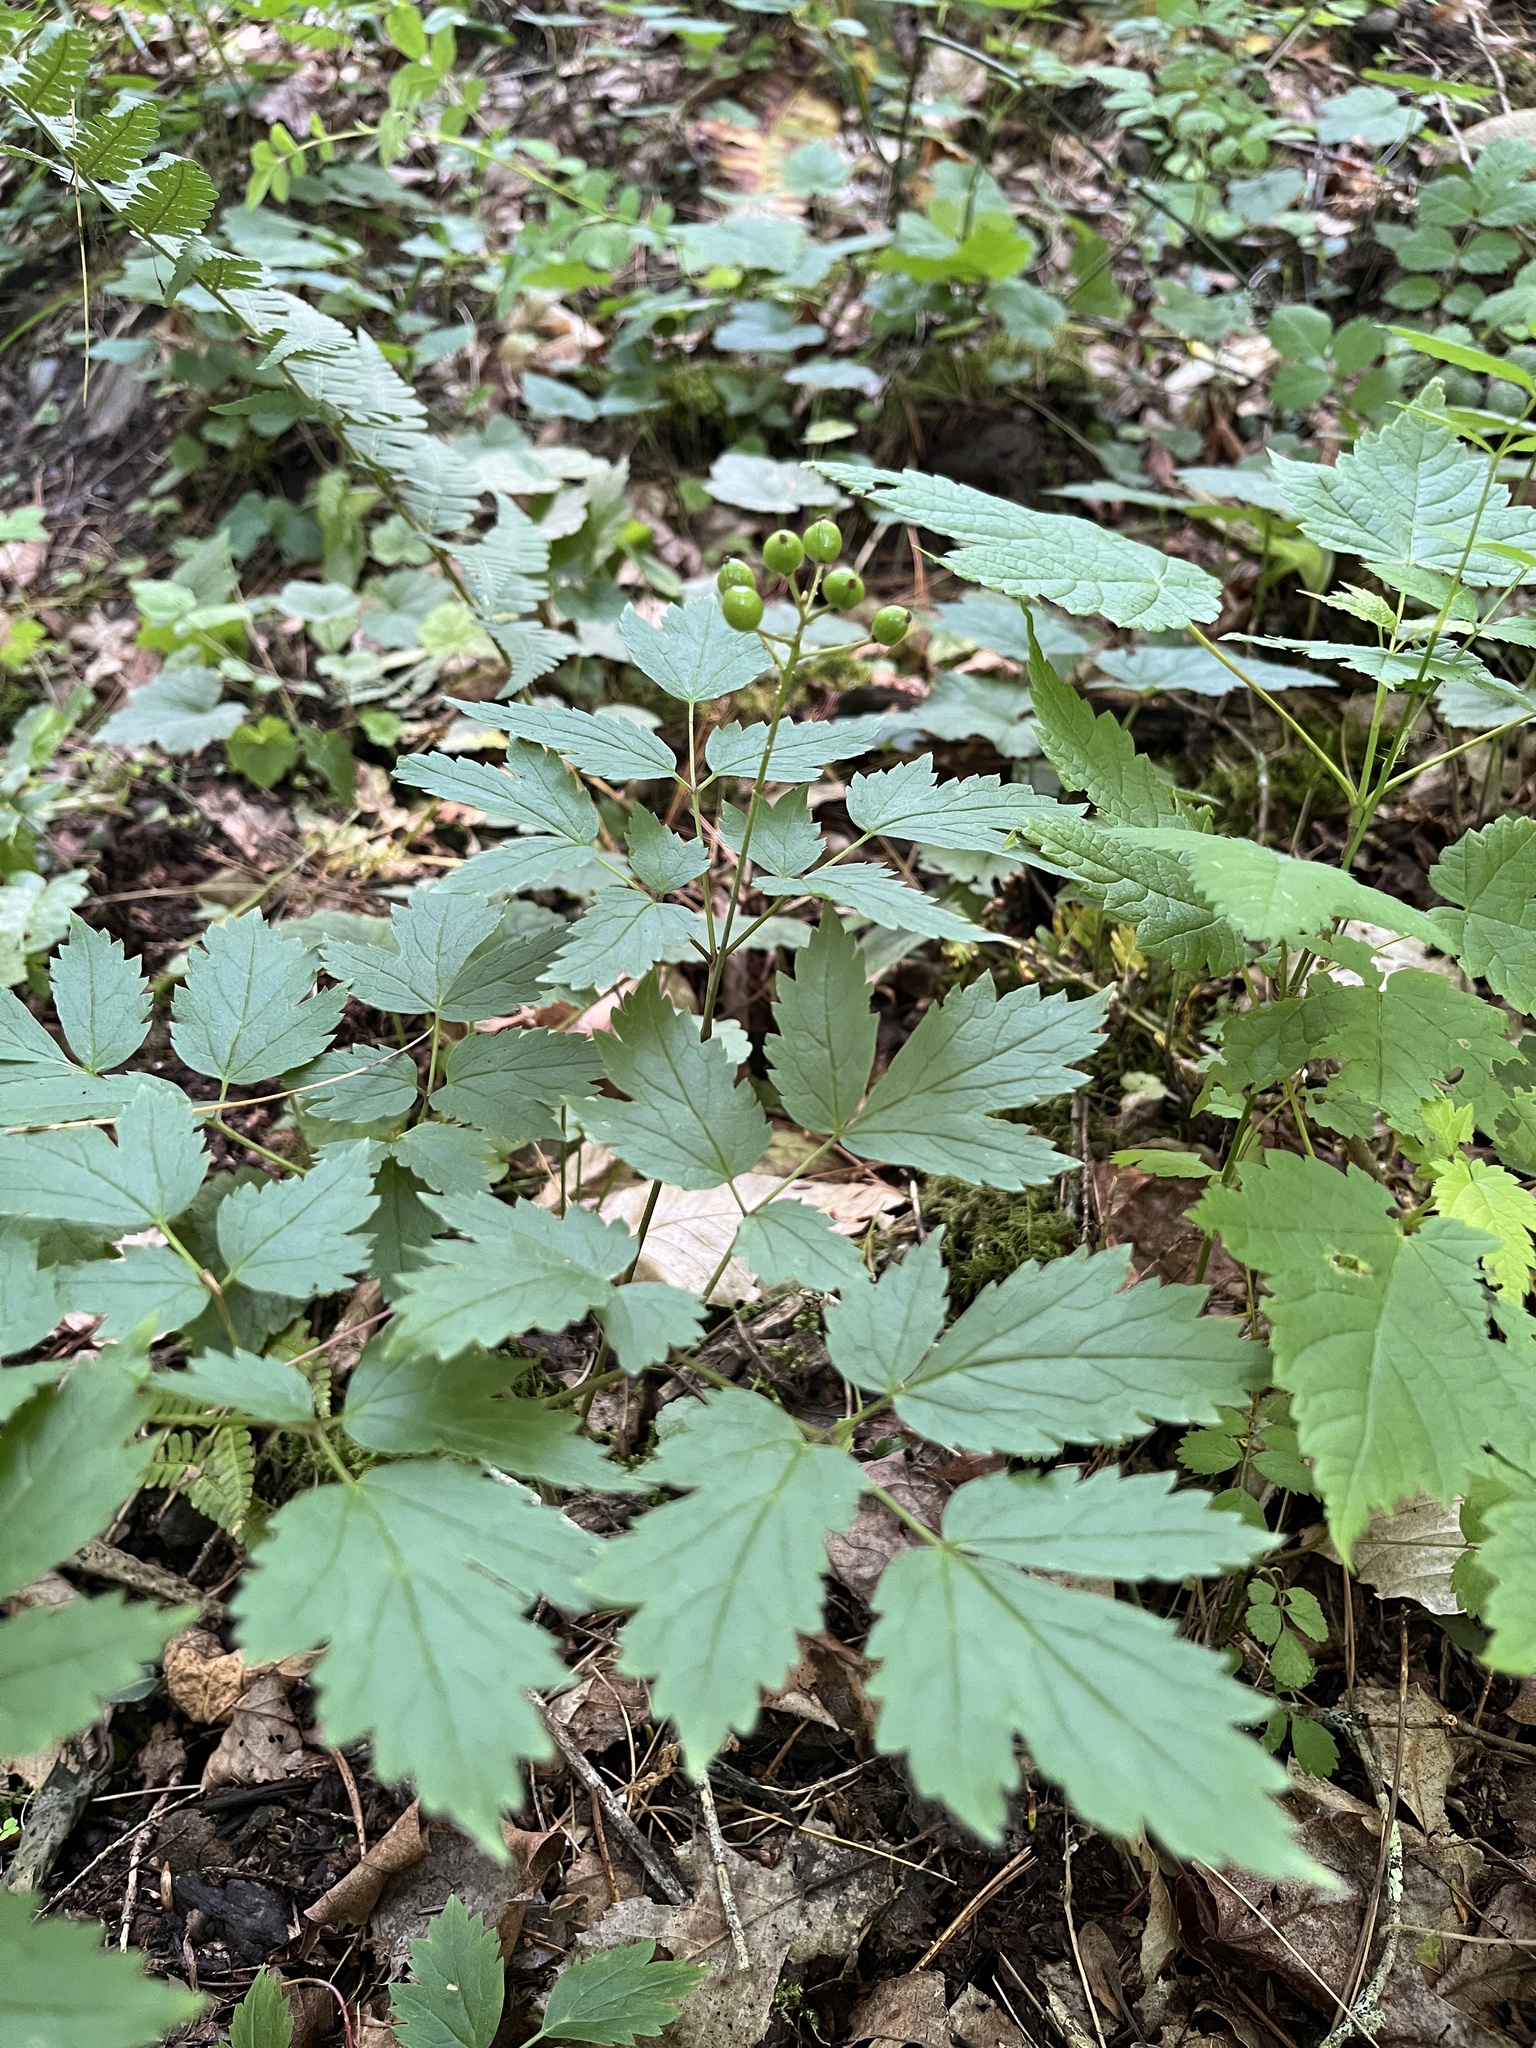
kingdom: Plantae
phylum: Tracheophyta
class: Magnoliopsida
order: Ranunculales
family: Ranunculaceae
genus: Actaea
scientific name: Actaea rubra
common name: Red baneberry
